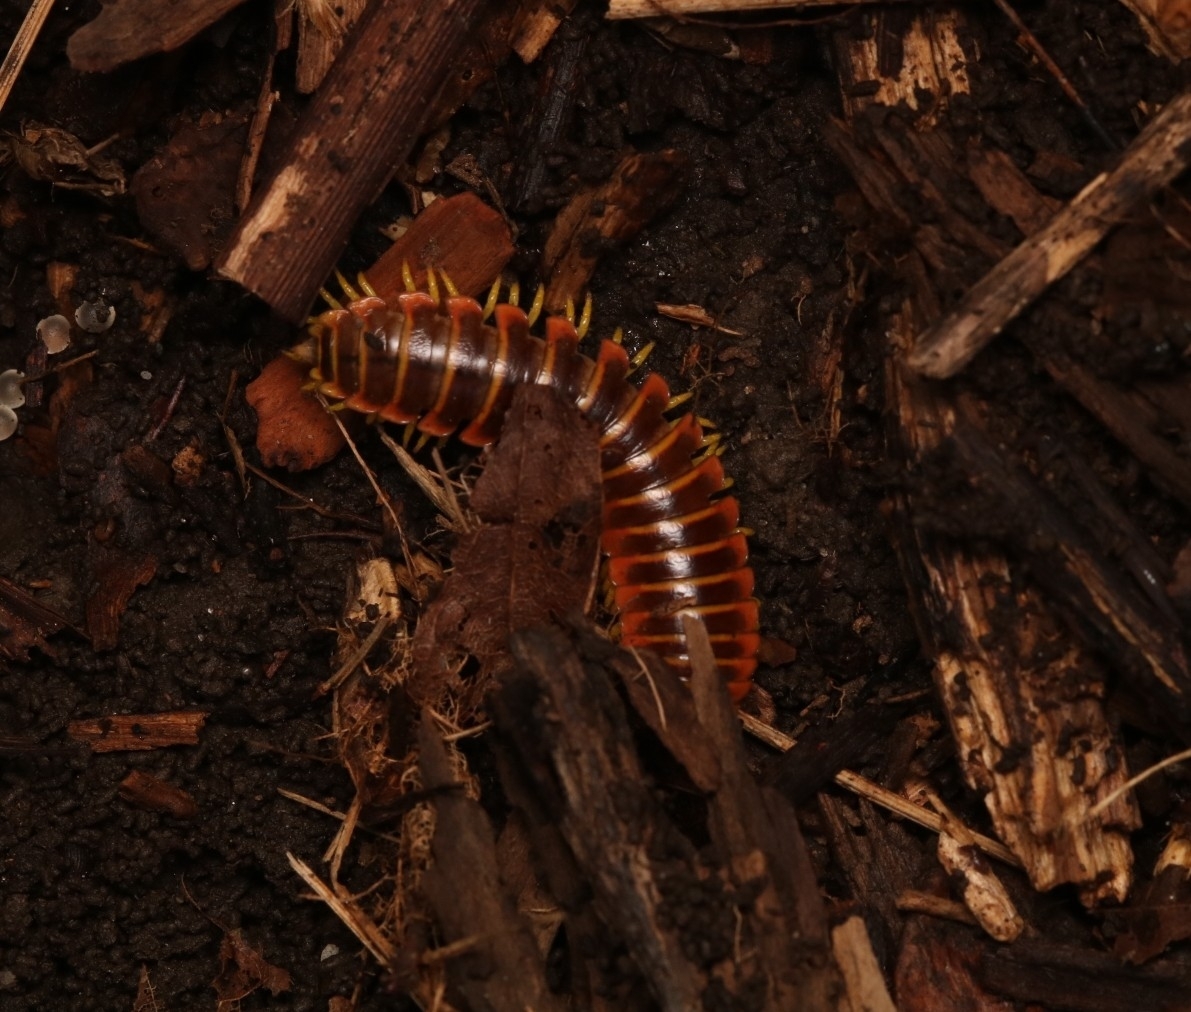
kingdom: Animalia
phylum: Arthropoda
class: Diplopoda
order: Polydesmida
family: Xystodesmidae
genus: Apheloria
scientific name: Apheloria virginiensis
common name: Black-and-gold flat millipede
